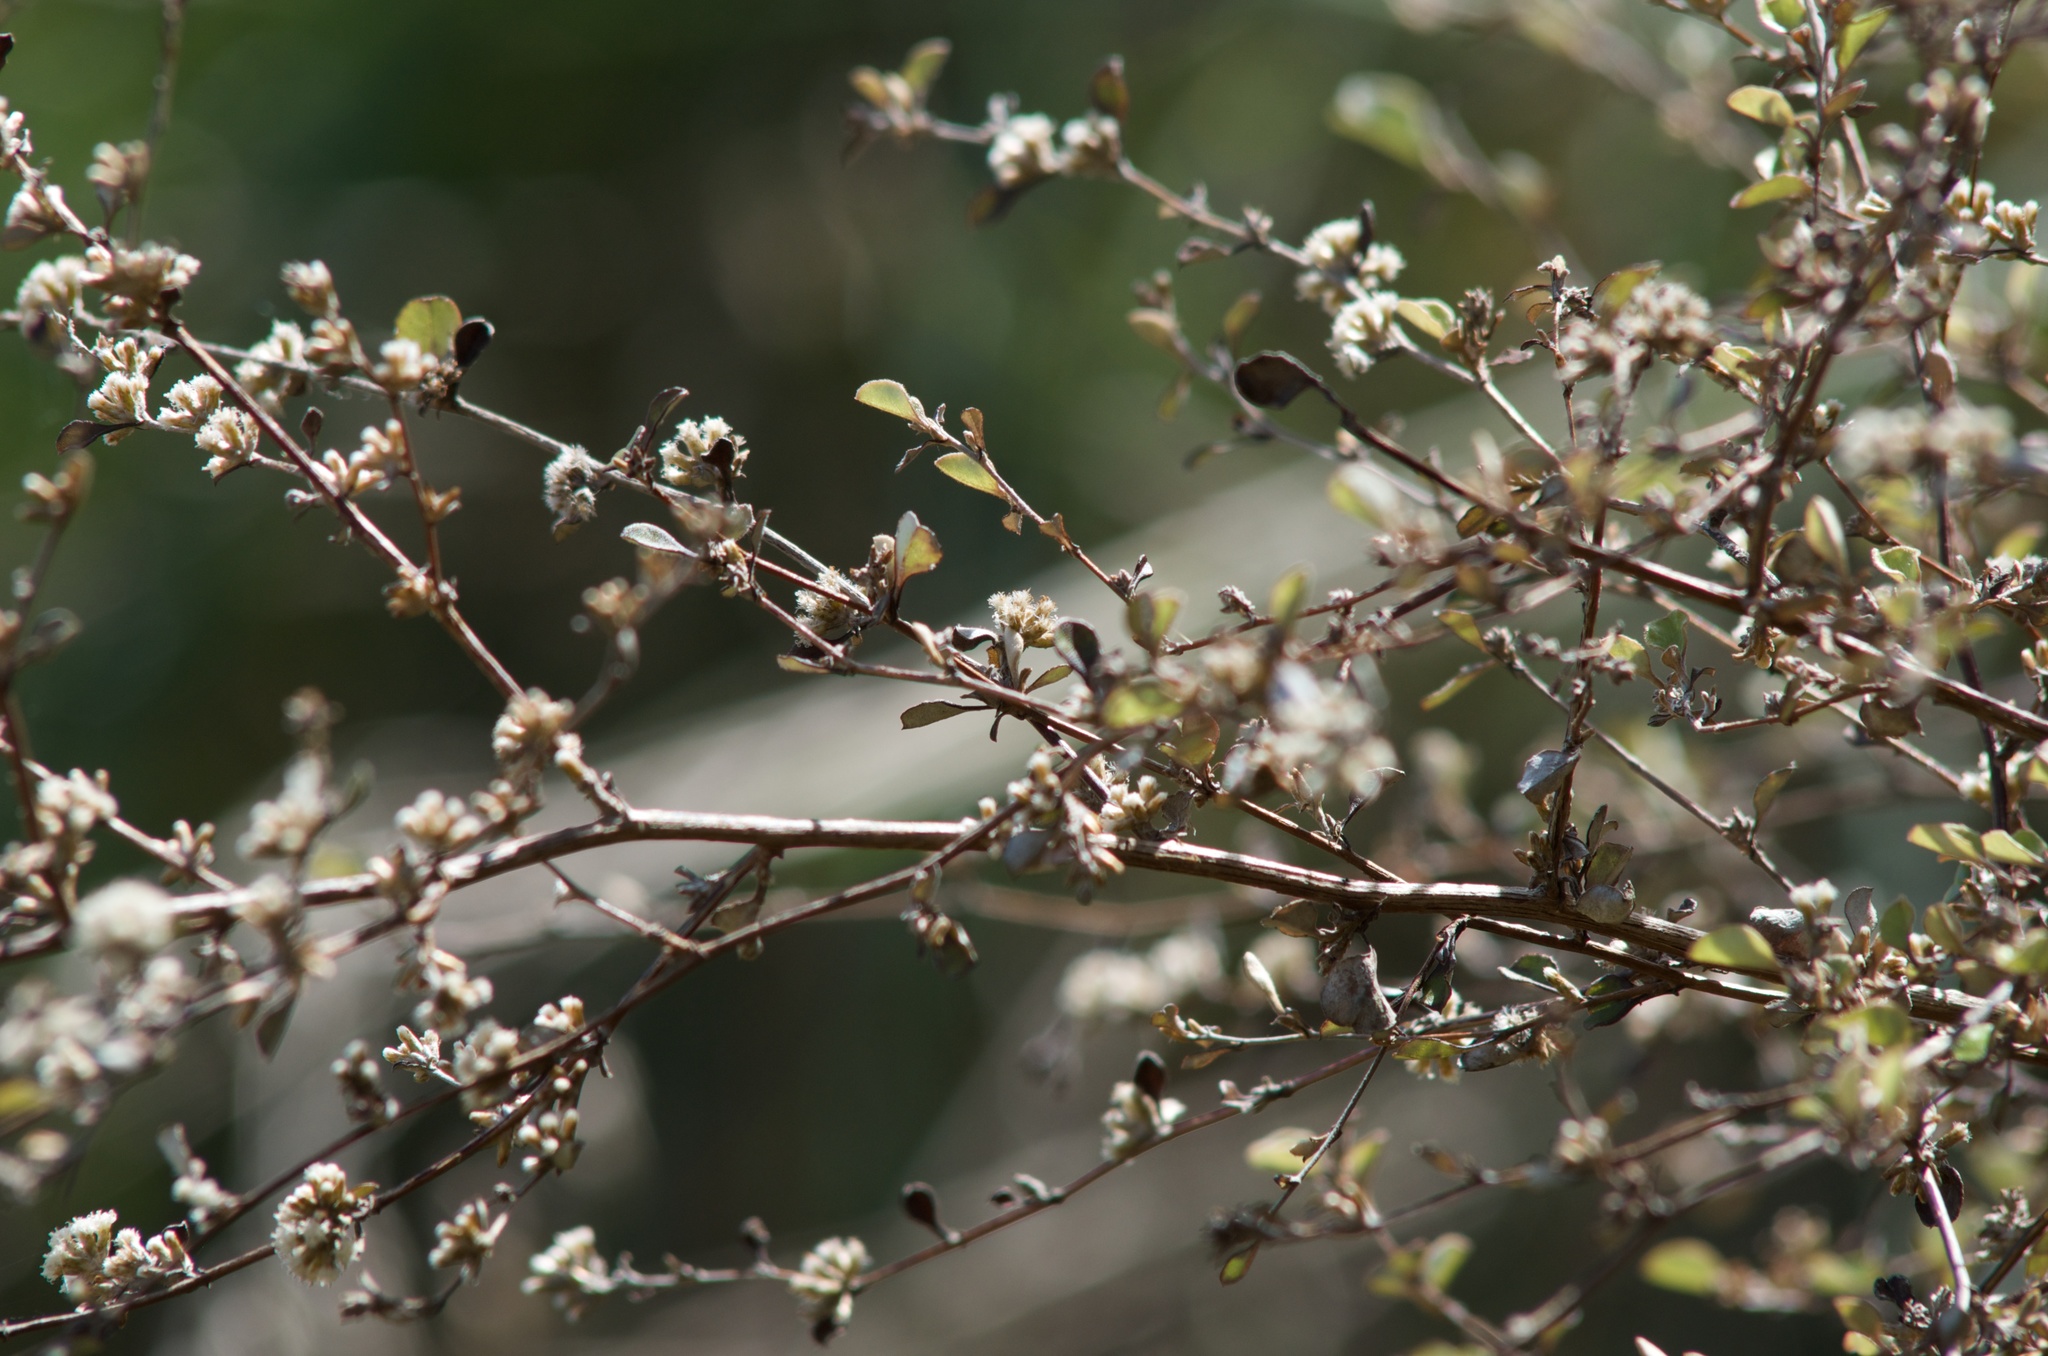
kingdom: Plantae
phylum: Tracheophyta
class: Magnoliopsida
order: Asterales
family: Asteraceae
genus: Ozothamnus
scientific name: Ozothamnus glomeratus
